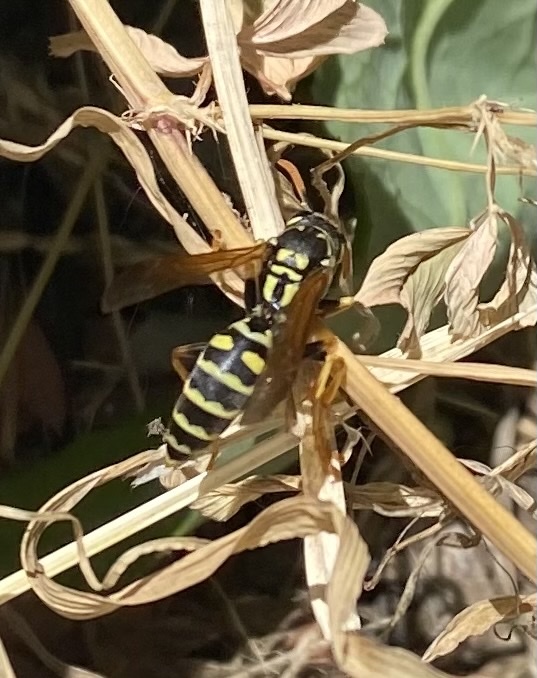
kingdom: Animalia
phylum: Arthropoda
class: Insecta
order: Hymenoptera
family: Eumenidae
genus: Polistes
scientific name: Polistes dominula
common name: Paper wasp
